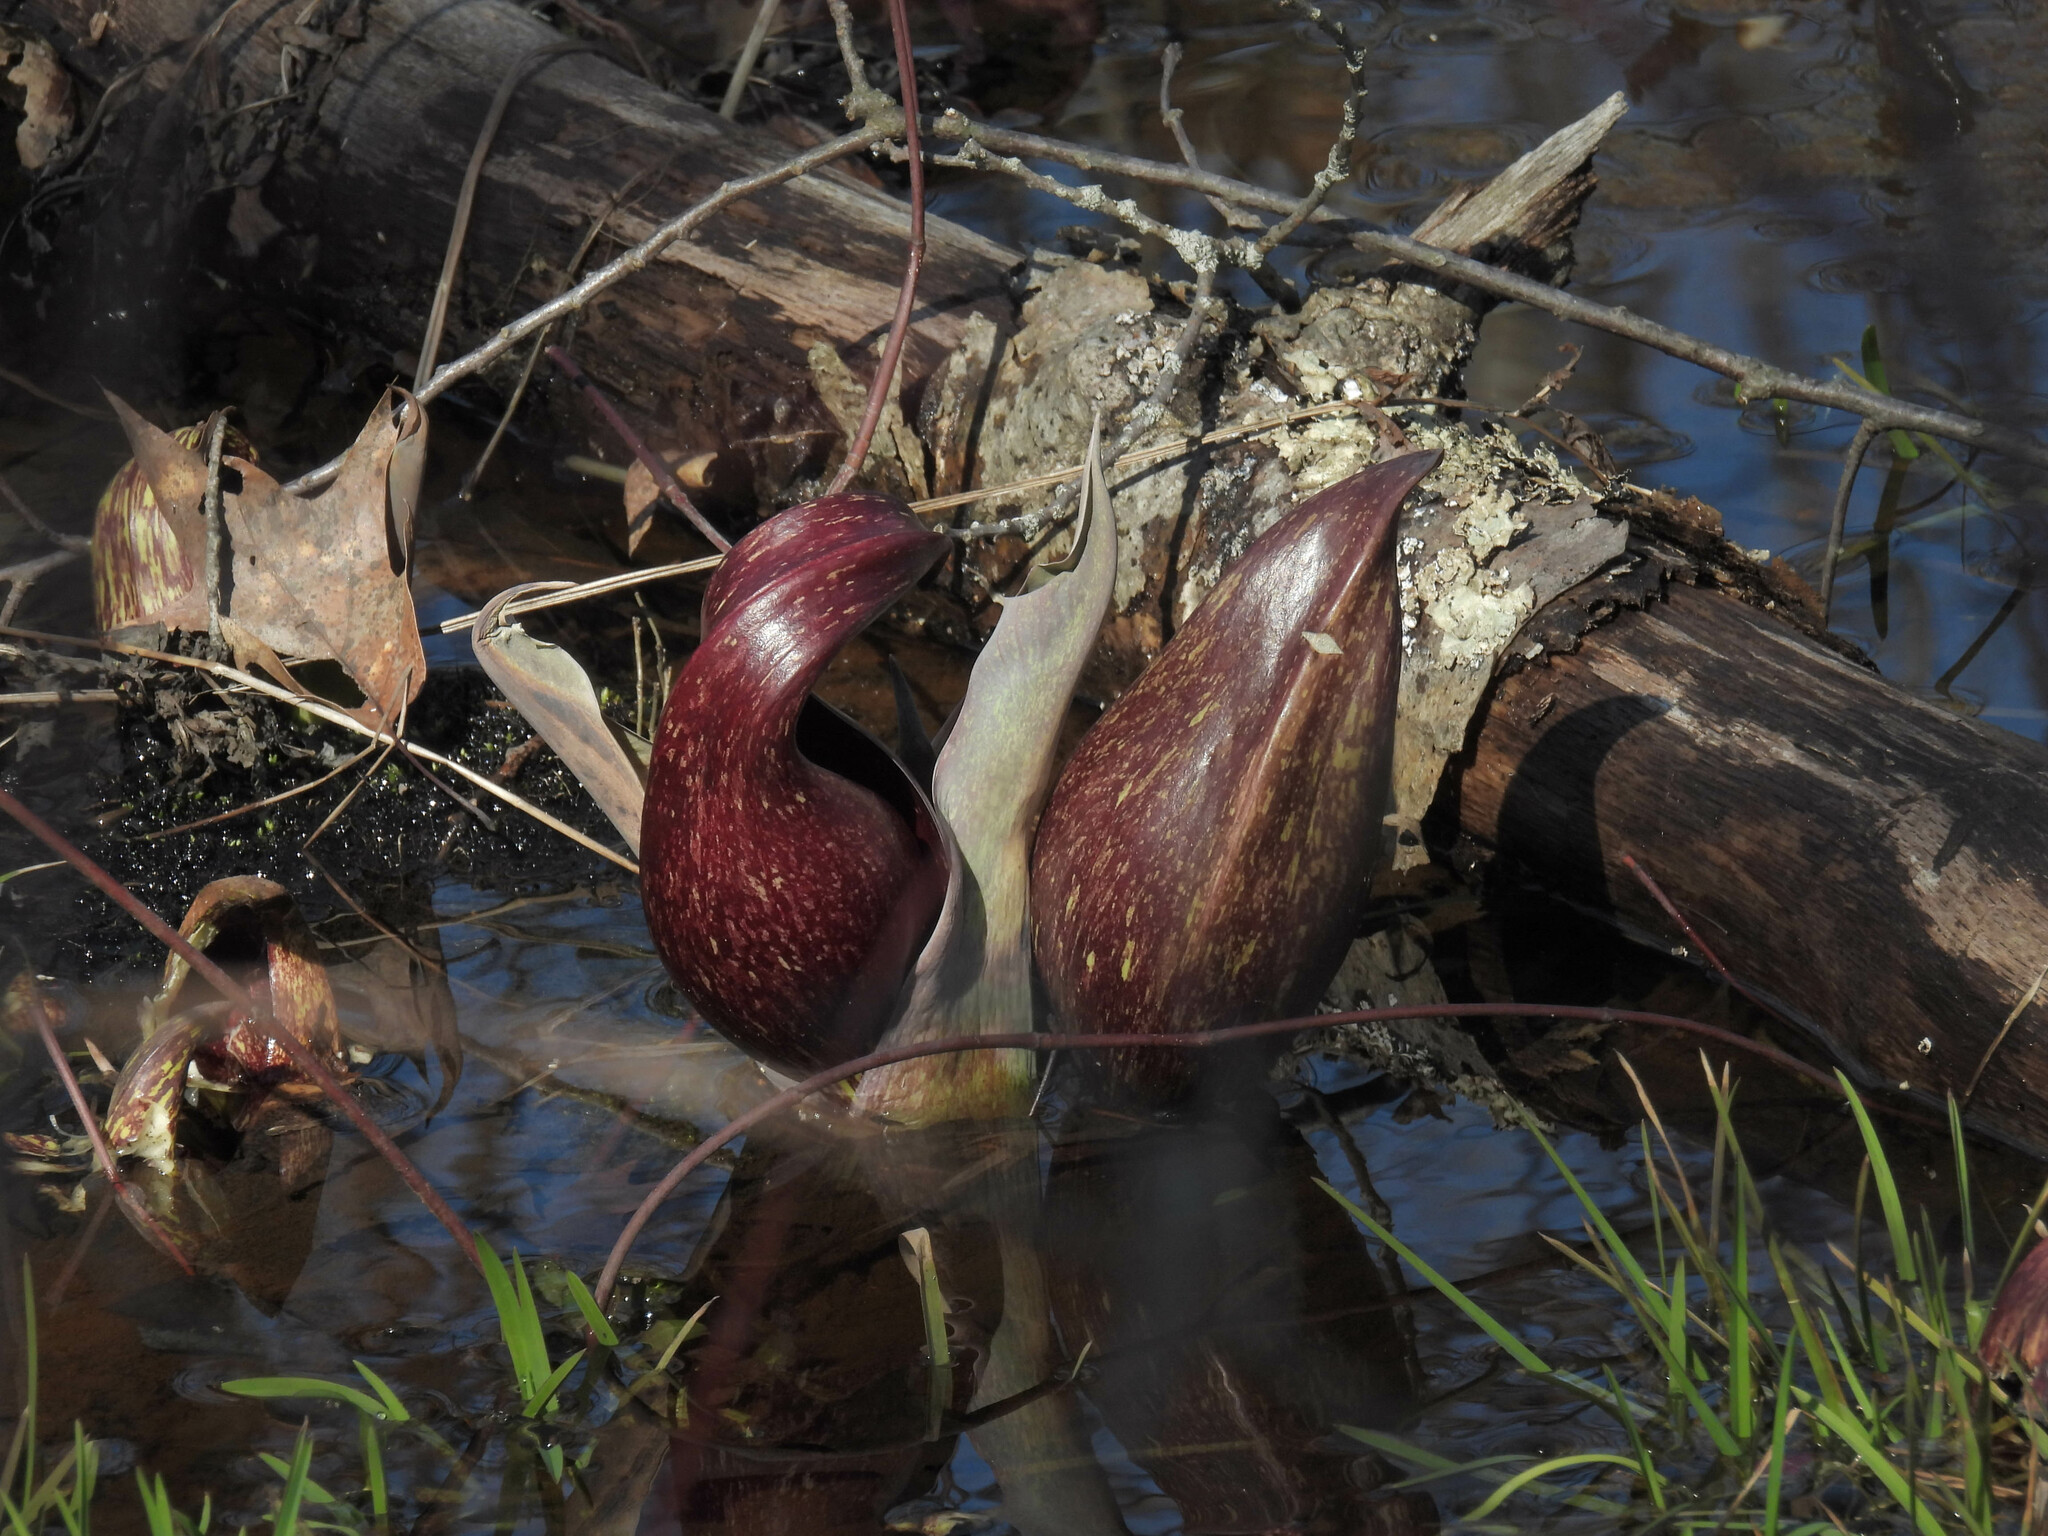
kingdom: Plantae
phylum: Tracheophyta
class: Liliopsida
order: Alismatales
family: Araceae
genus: Symplocarpus
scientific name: Symplocarpus foetidus
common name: Eastern skunk cabbage
